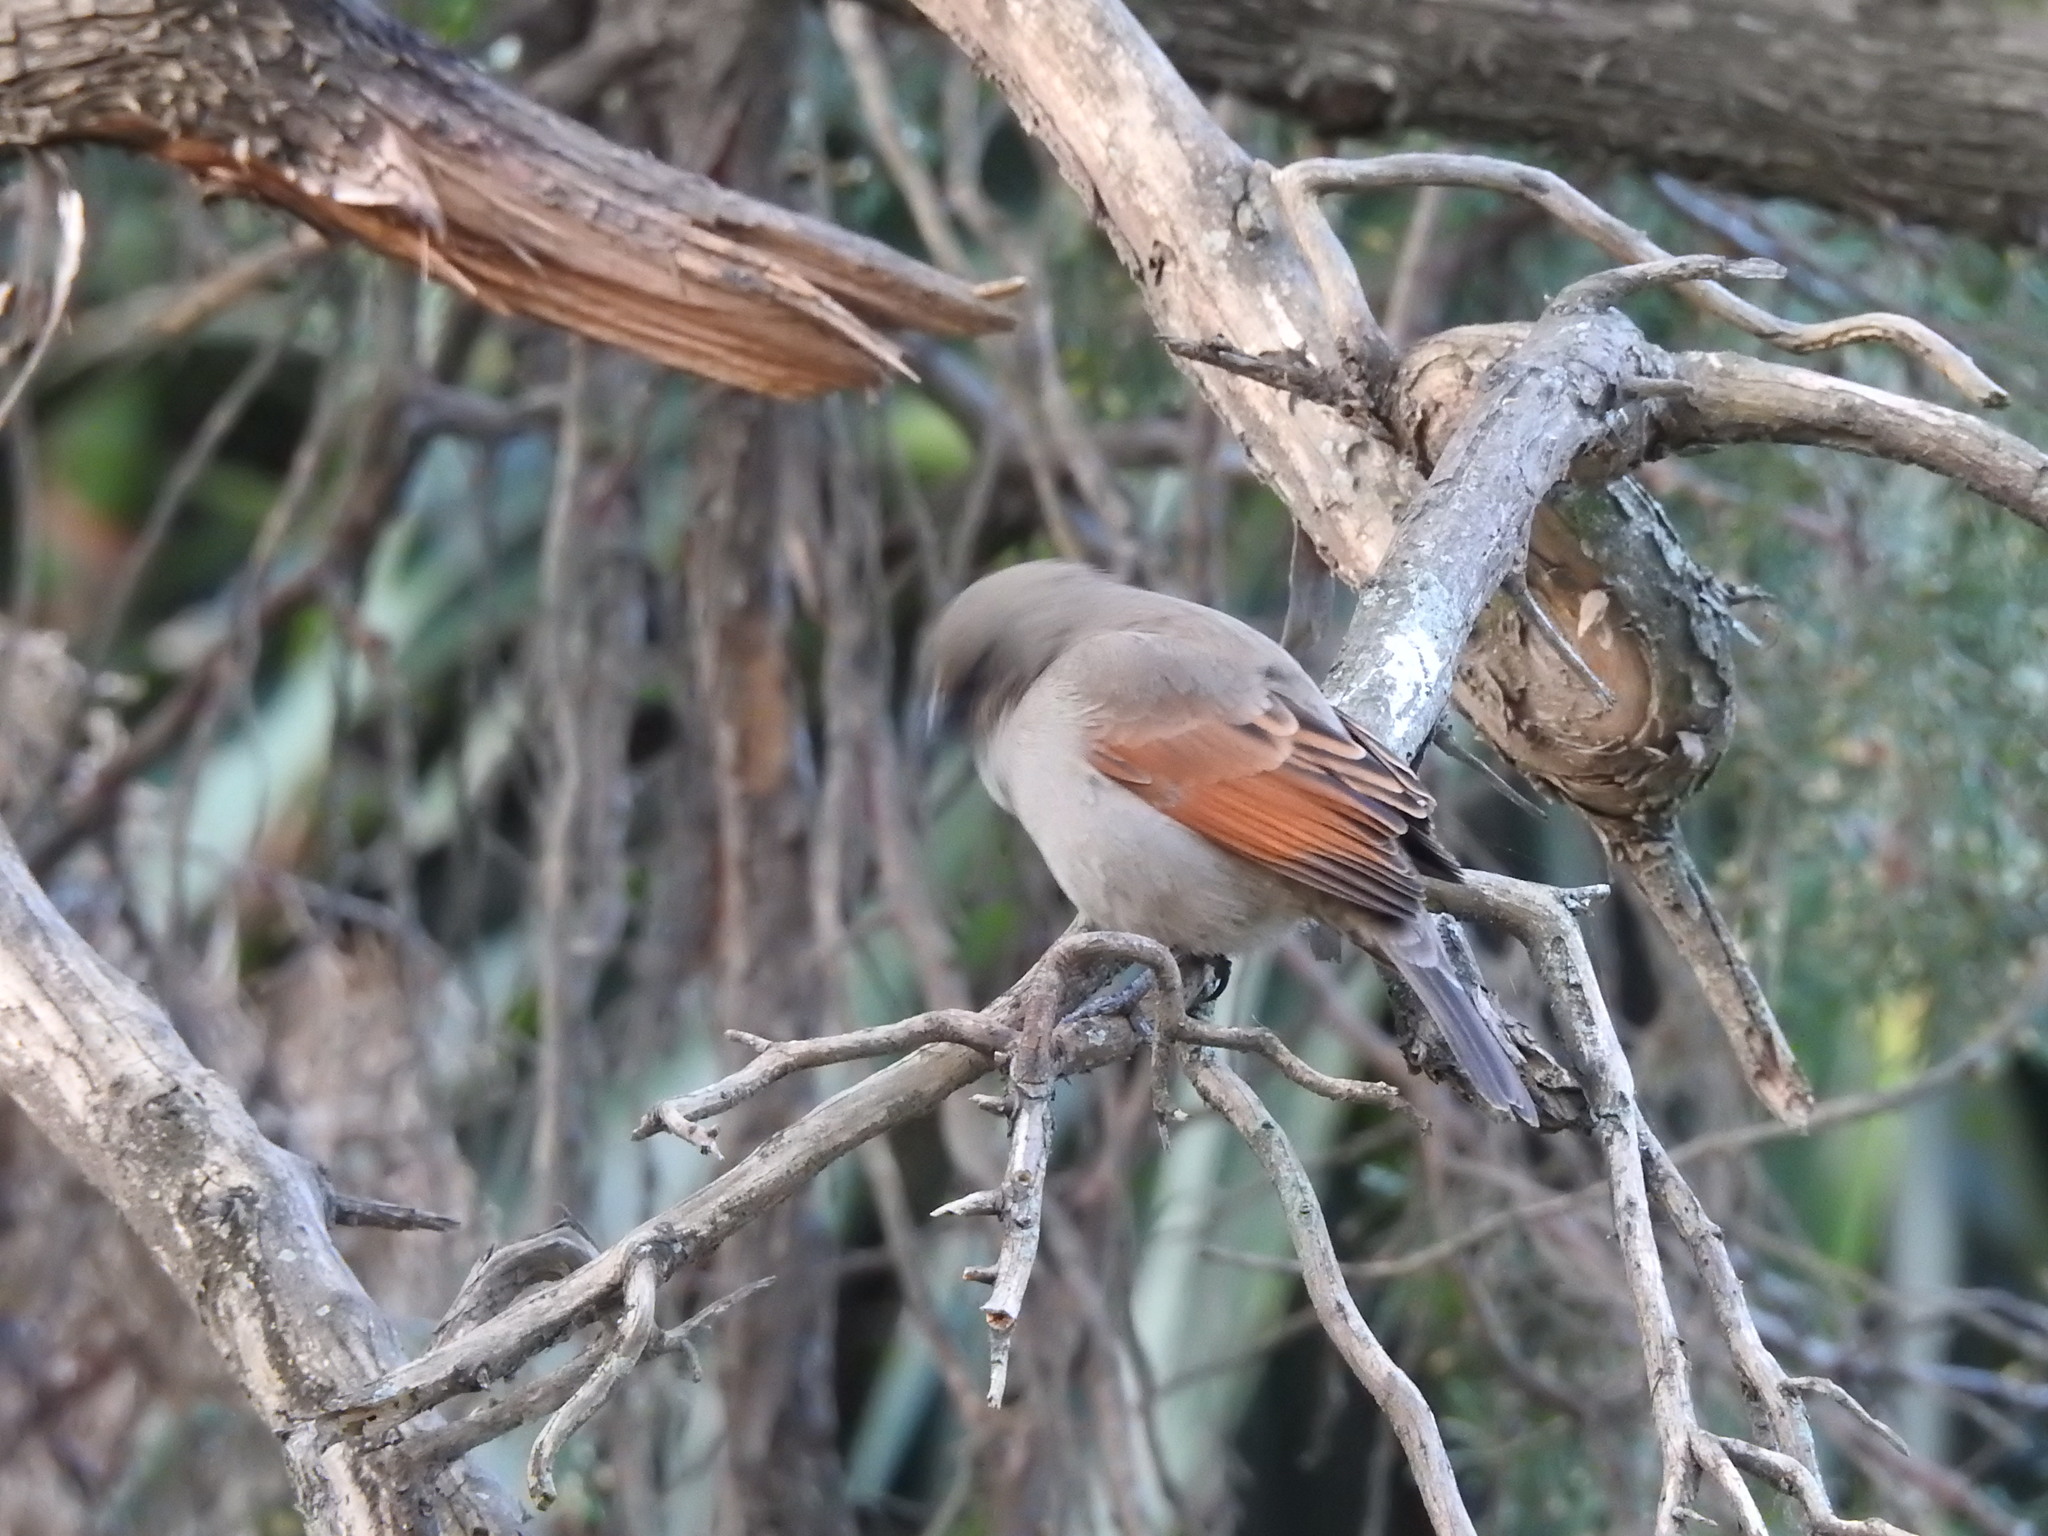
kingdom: Animalia
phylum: Chordata
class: Aves
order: Passeriformes
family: Icteridae
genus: Agelaioides
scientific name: Agelaioides badius
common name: Baywing
